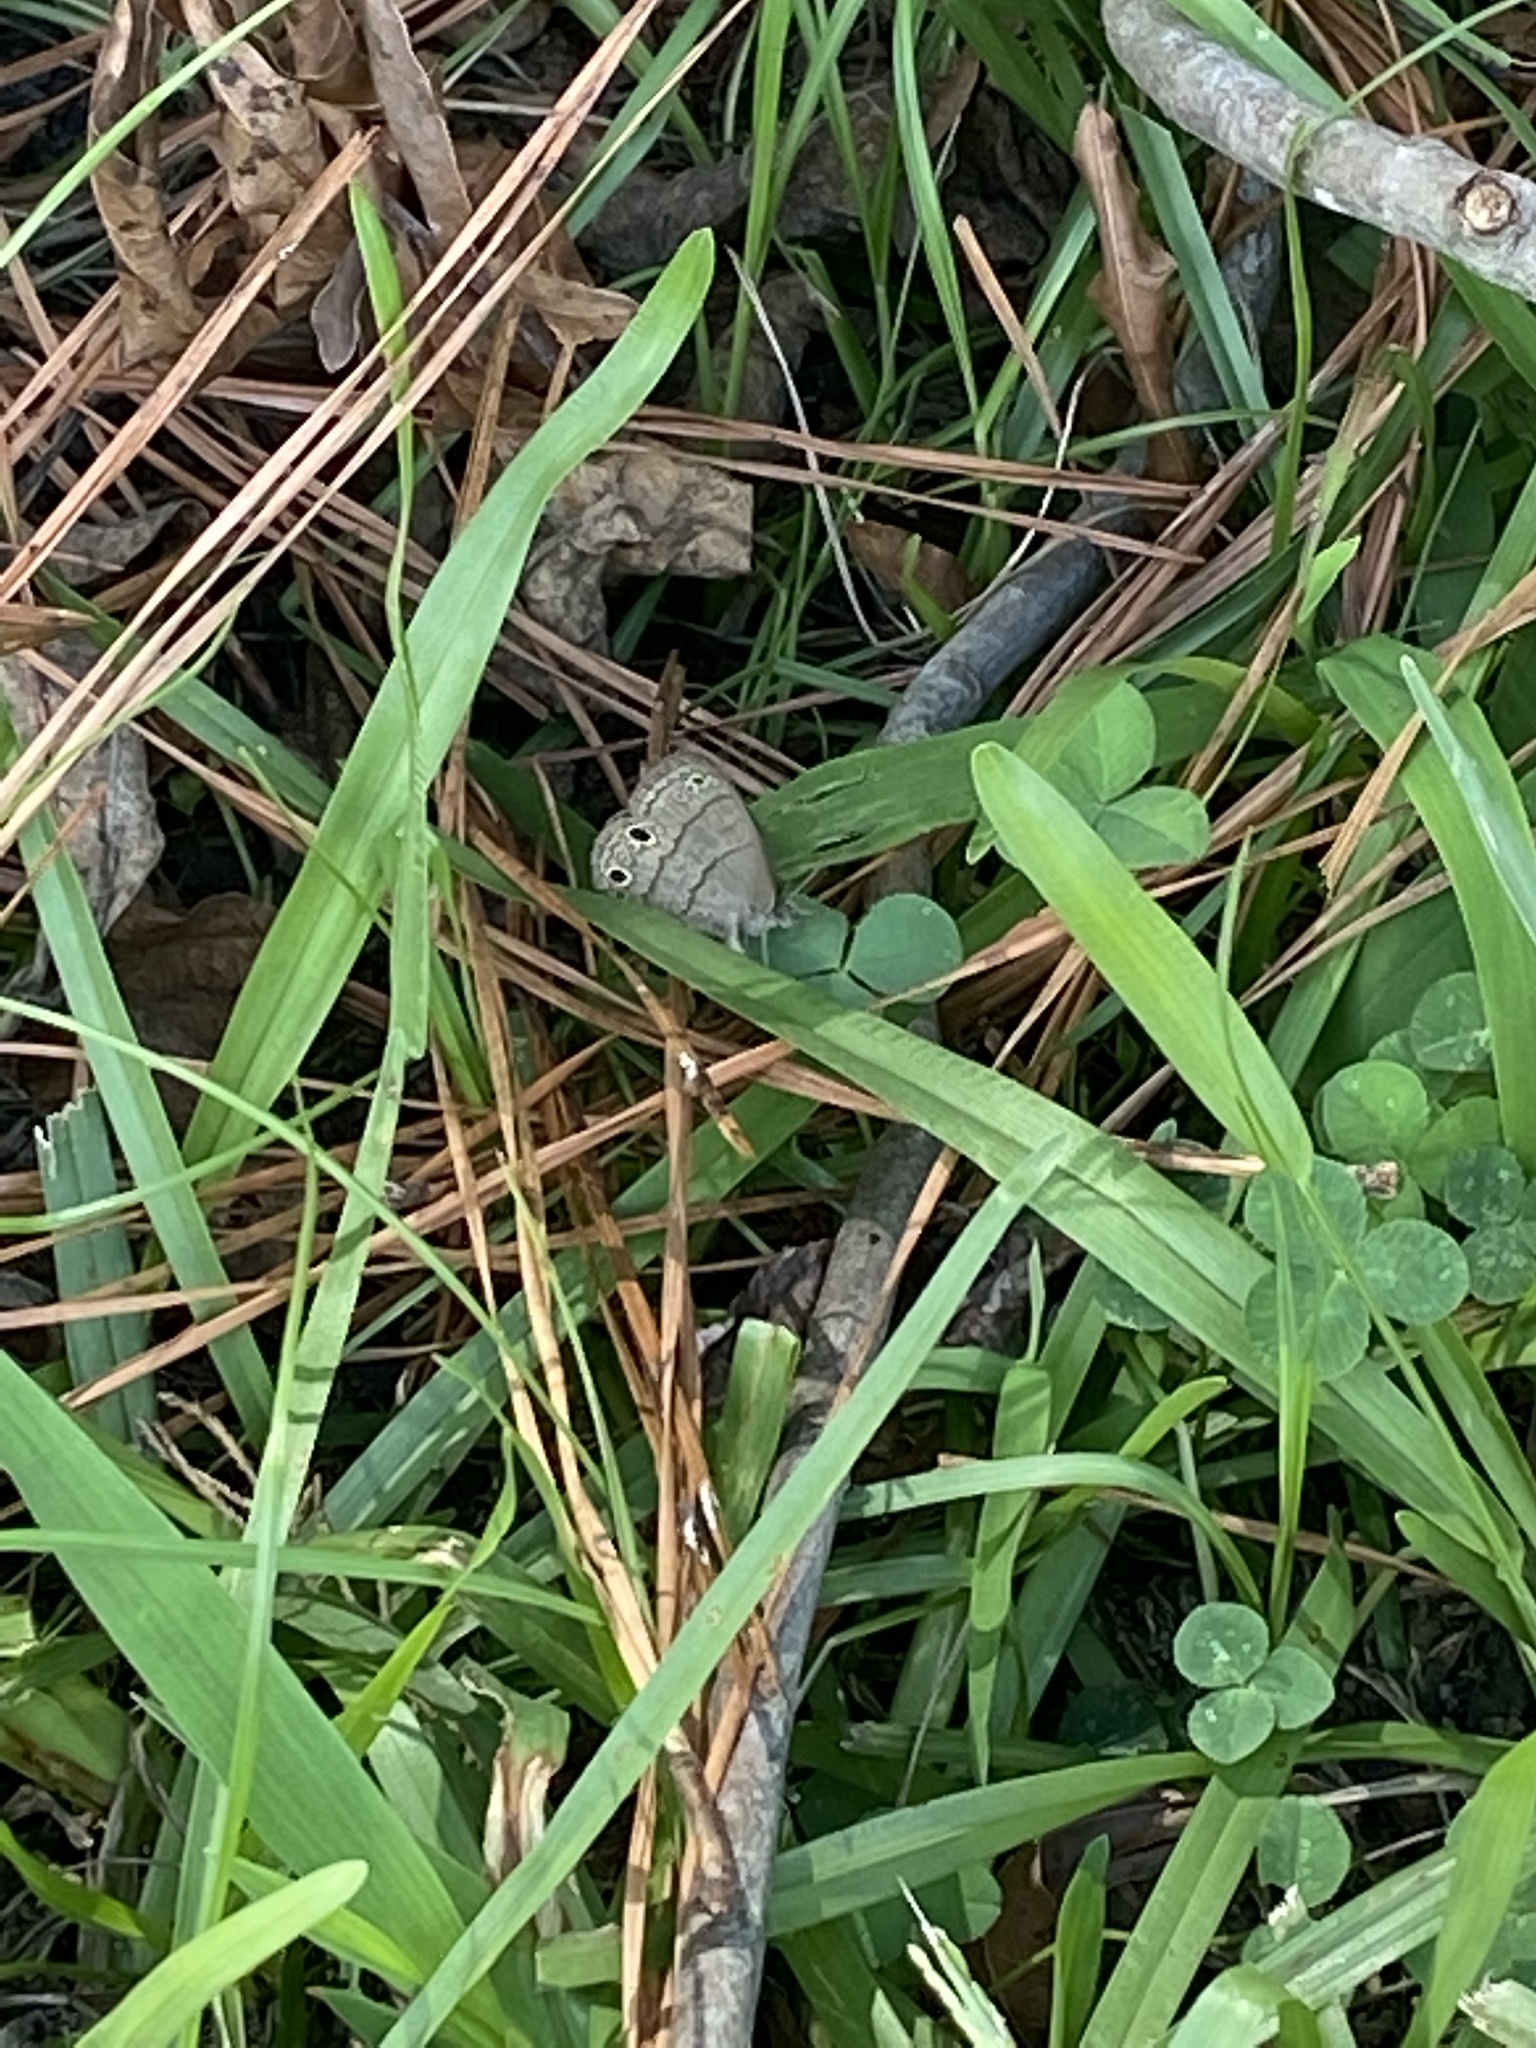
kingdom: Animalia
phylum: Arthropoda
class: Insecta
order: Lepidoptera
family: Nymphalidae
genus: Hermeuptychia
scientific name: Hermeuptychia hermes
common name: Hermes satyr
